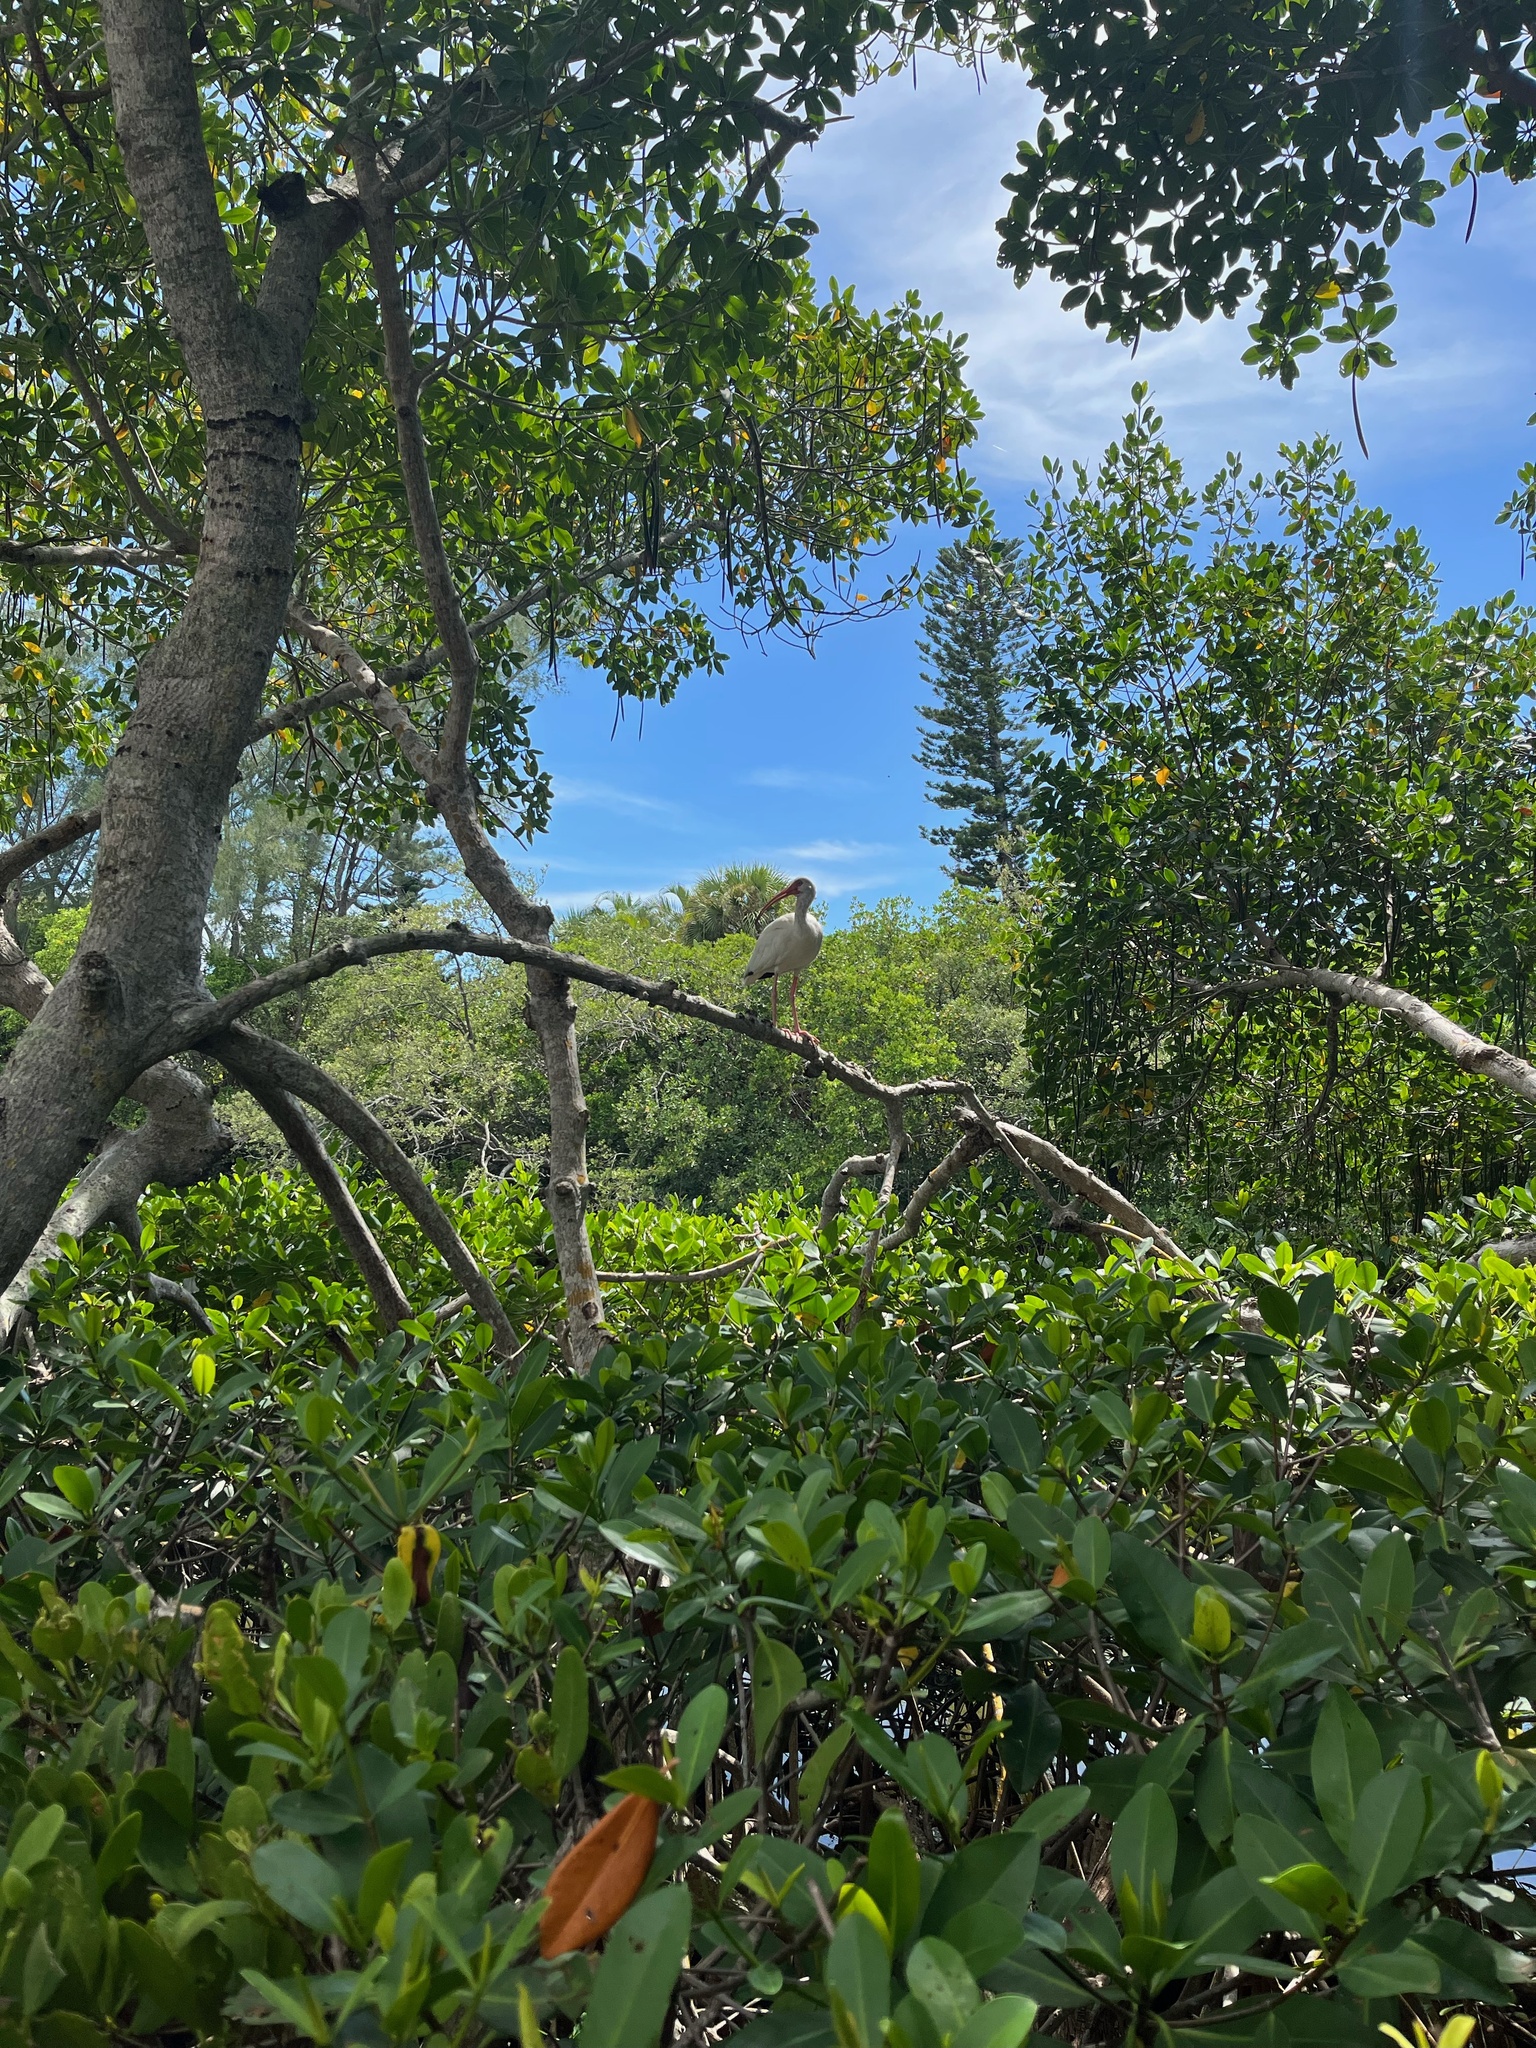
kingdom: Animalia
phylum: Chordata
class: Aves
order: Pelecaniformes
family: Threskiornithidae
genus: Eudocimus
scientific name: Eudocimus albus
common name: White ibis
